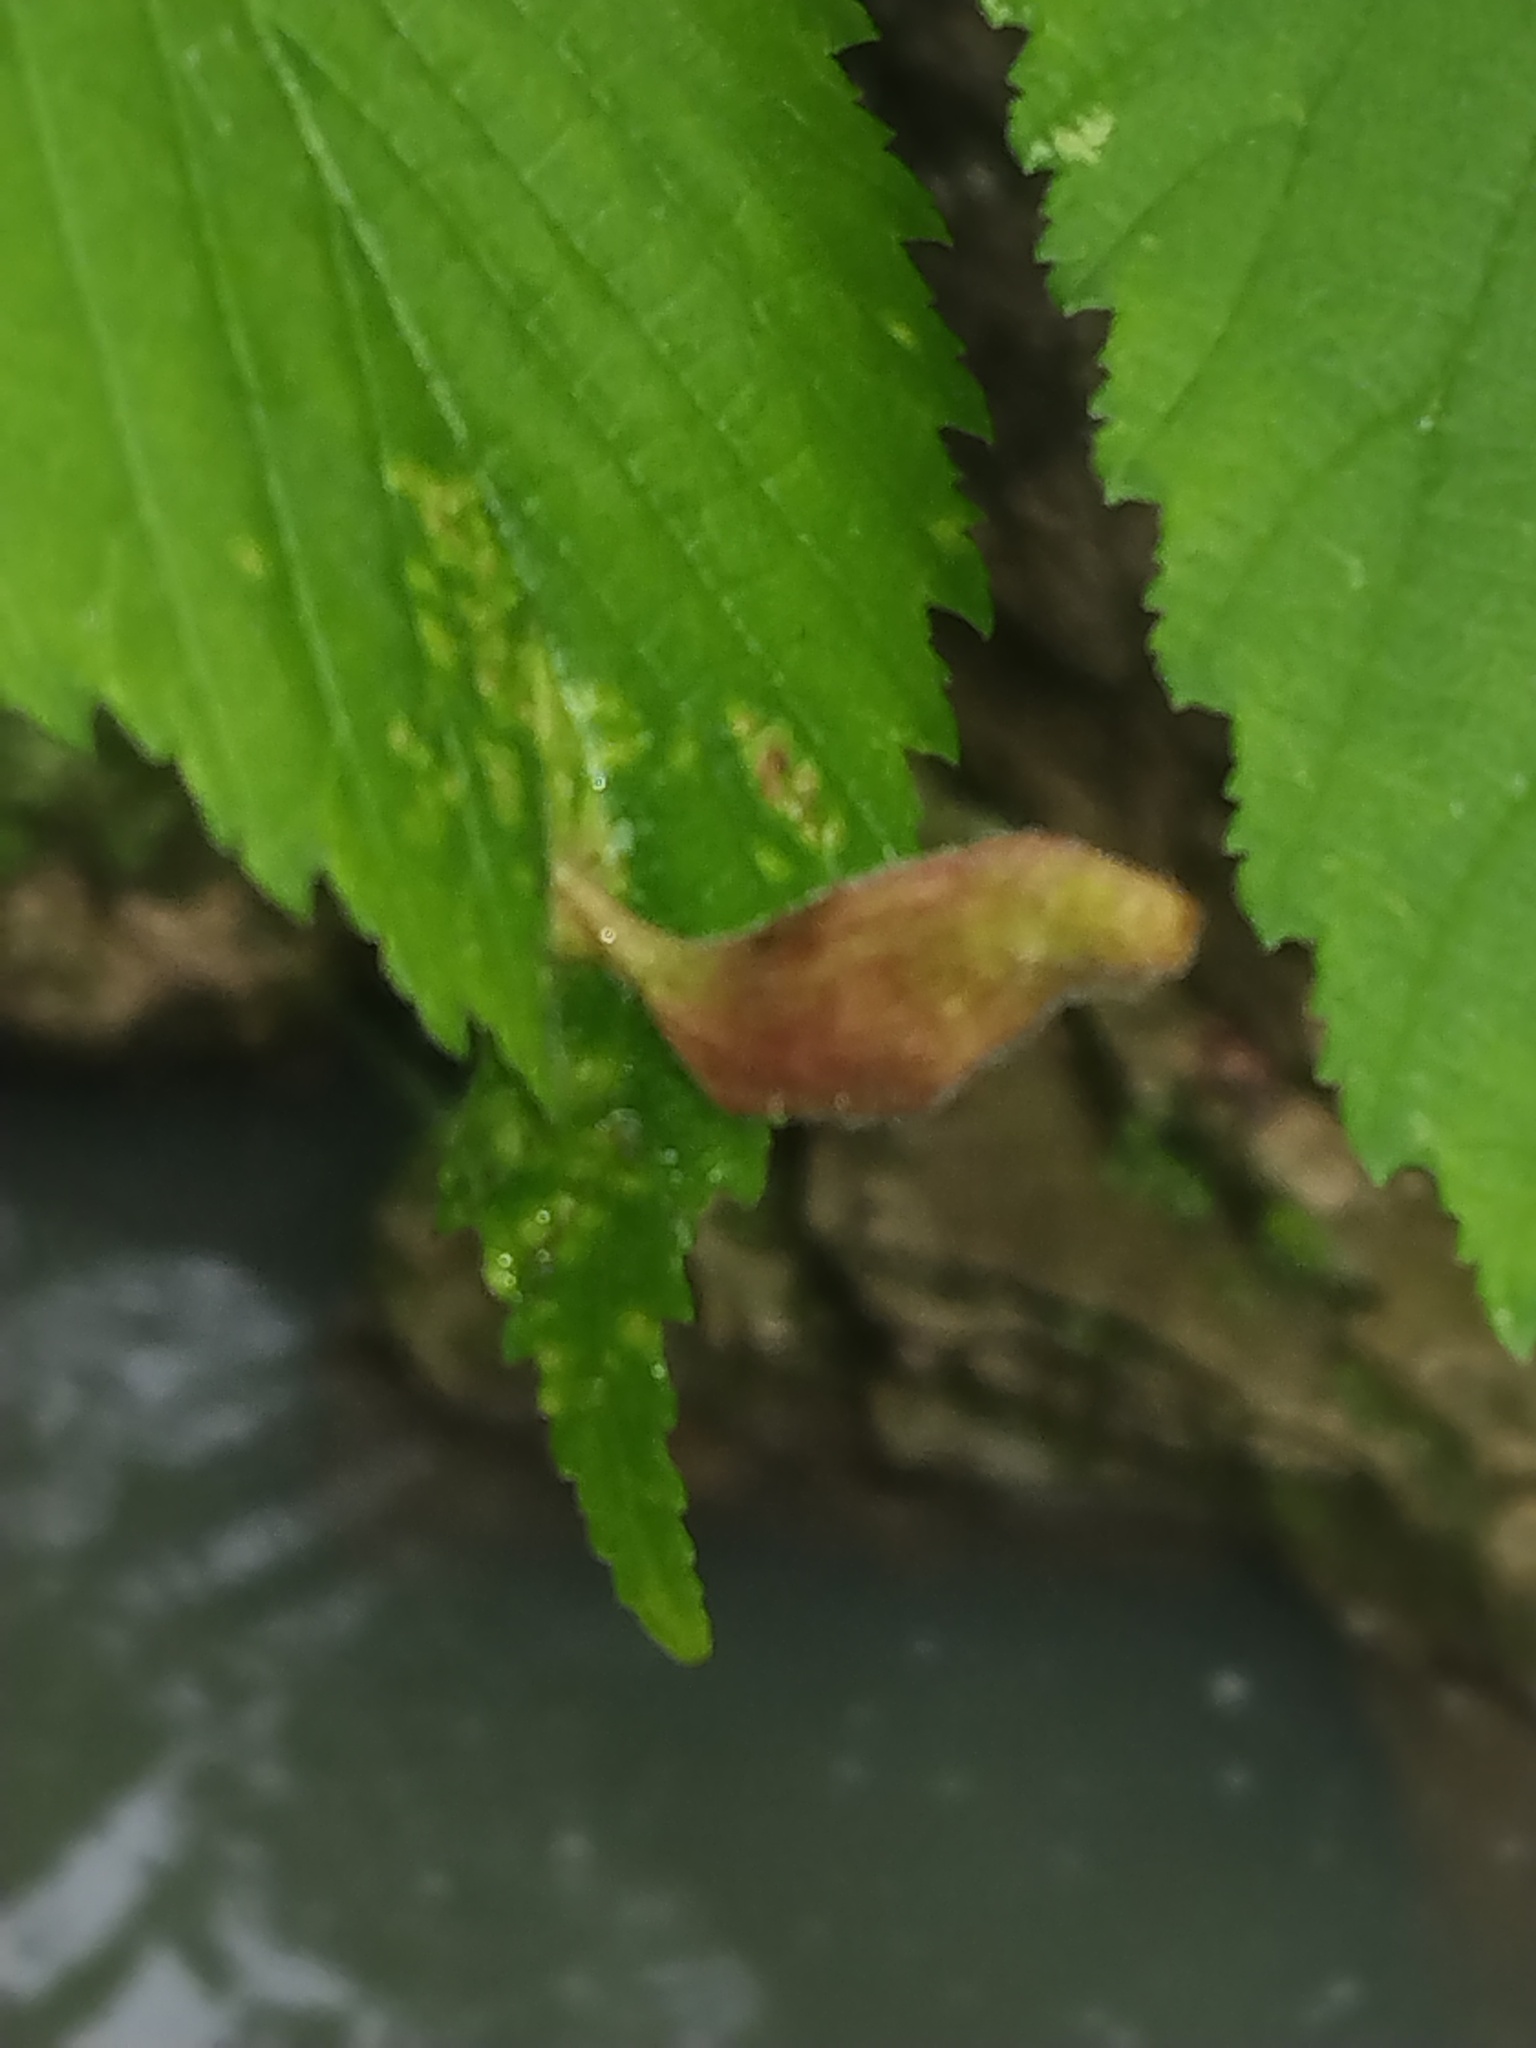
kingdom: Animalia
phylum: Arthropoda
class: Insecta
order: Hemiptera
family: Aphididae
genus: Tetraneura
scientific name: Tetraneura nigriabdominalis
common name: Aphid
